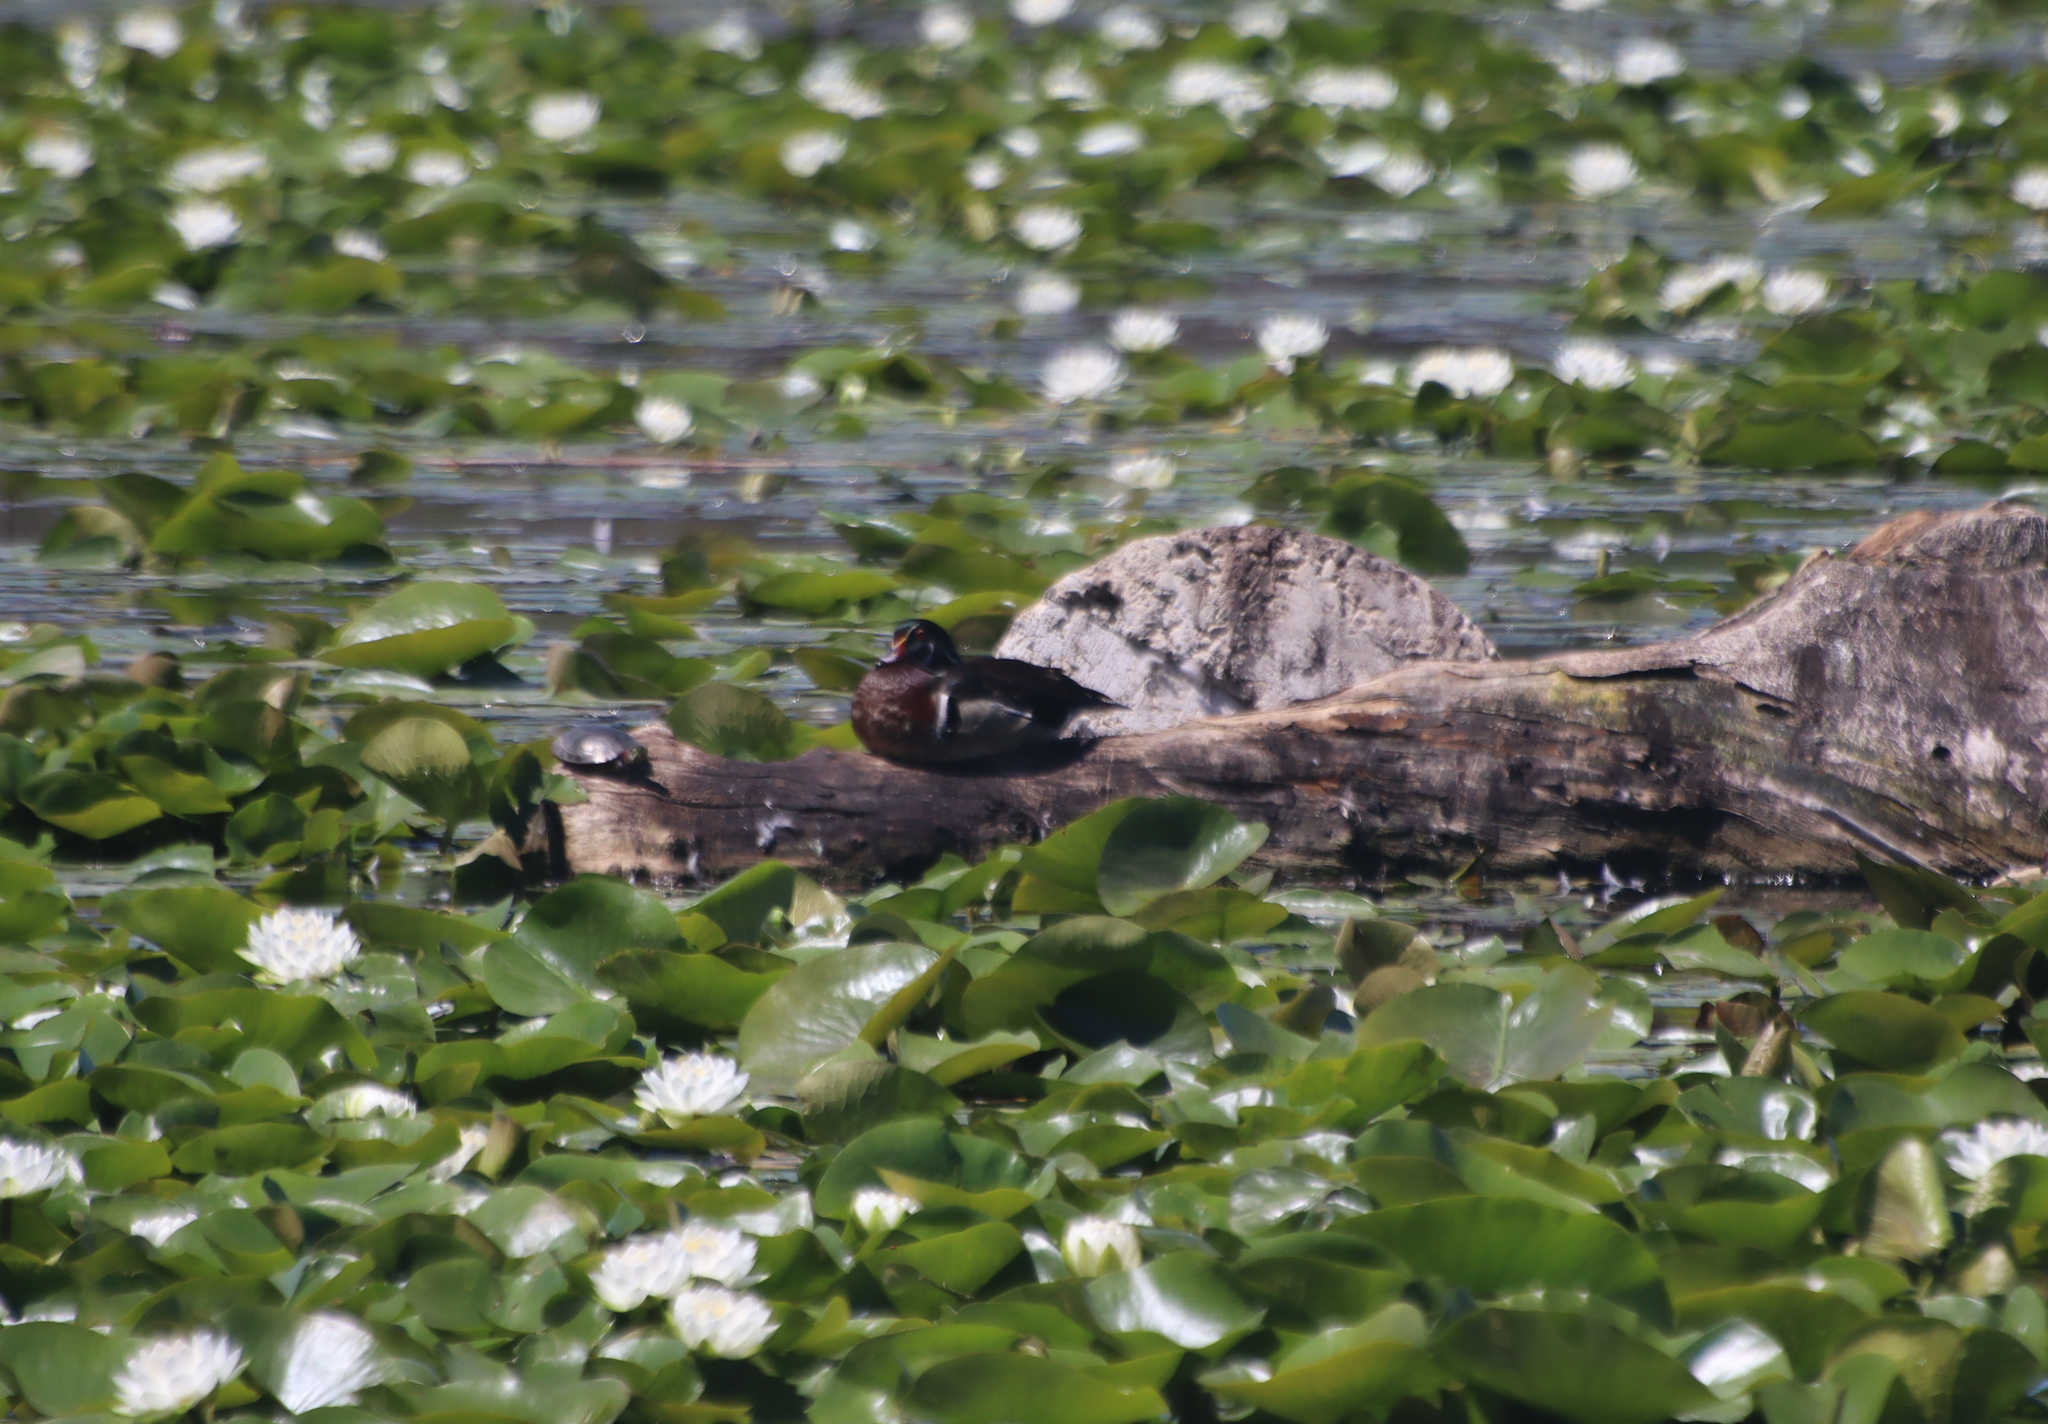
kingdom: Animalia
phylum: Chordata
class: Aves
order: Anseriformes
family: Anatidae
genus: Aix
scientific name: Aix sponsa
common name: Wood duck
